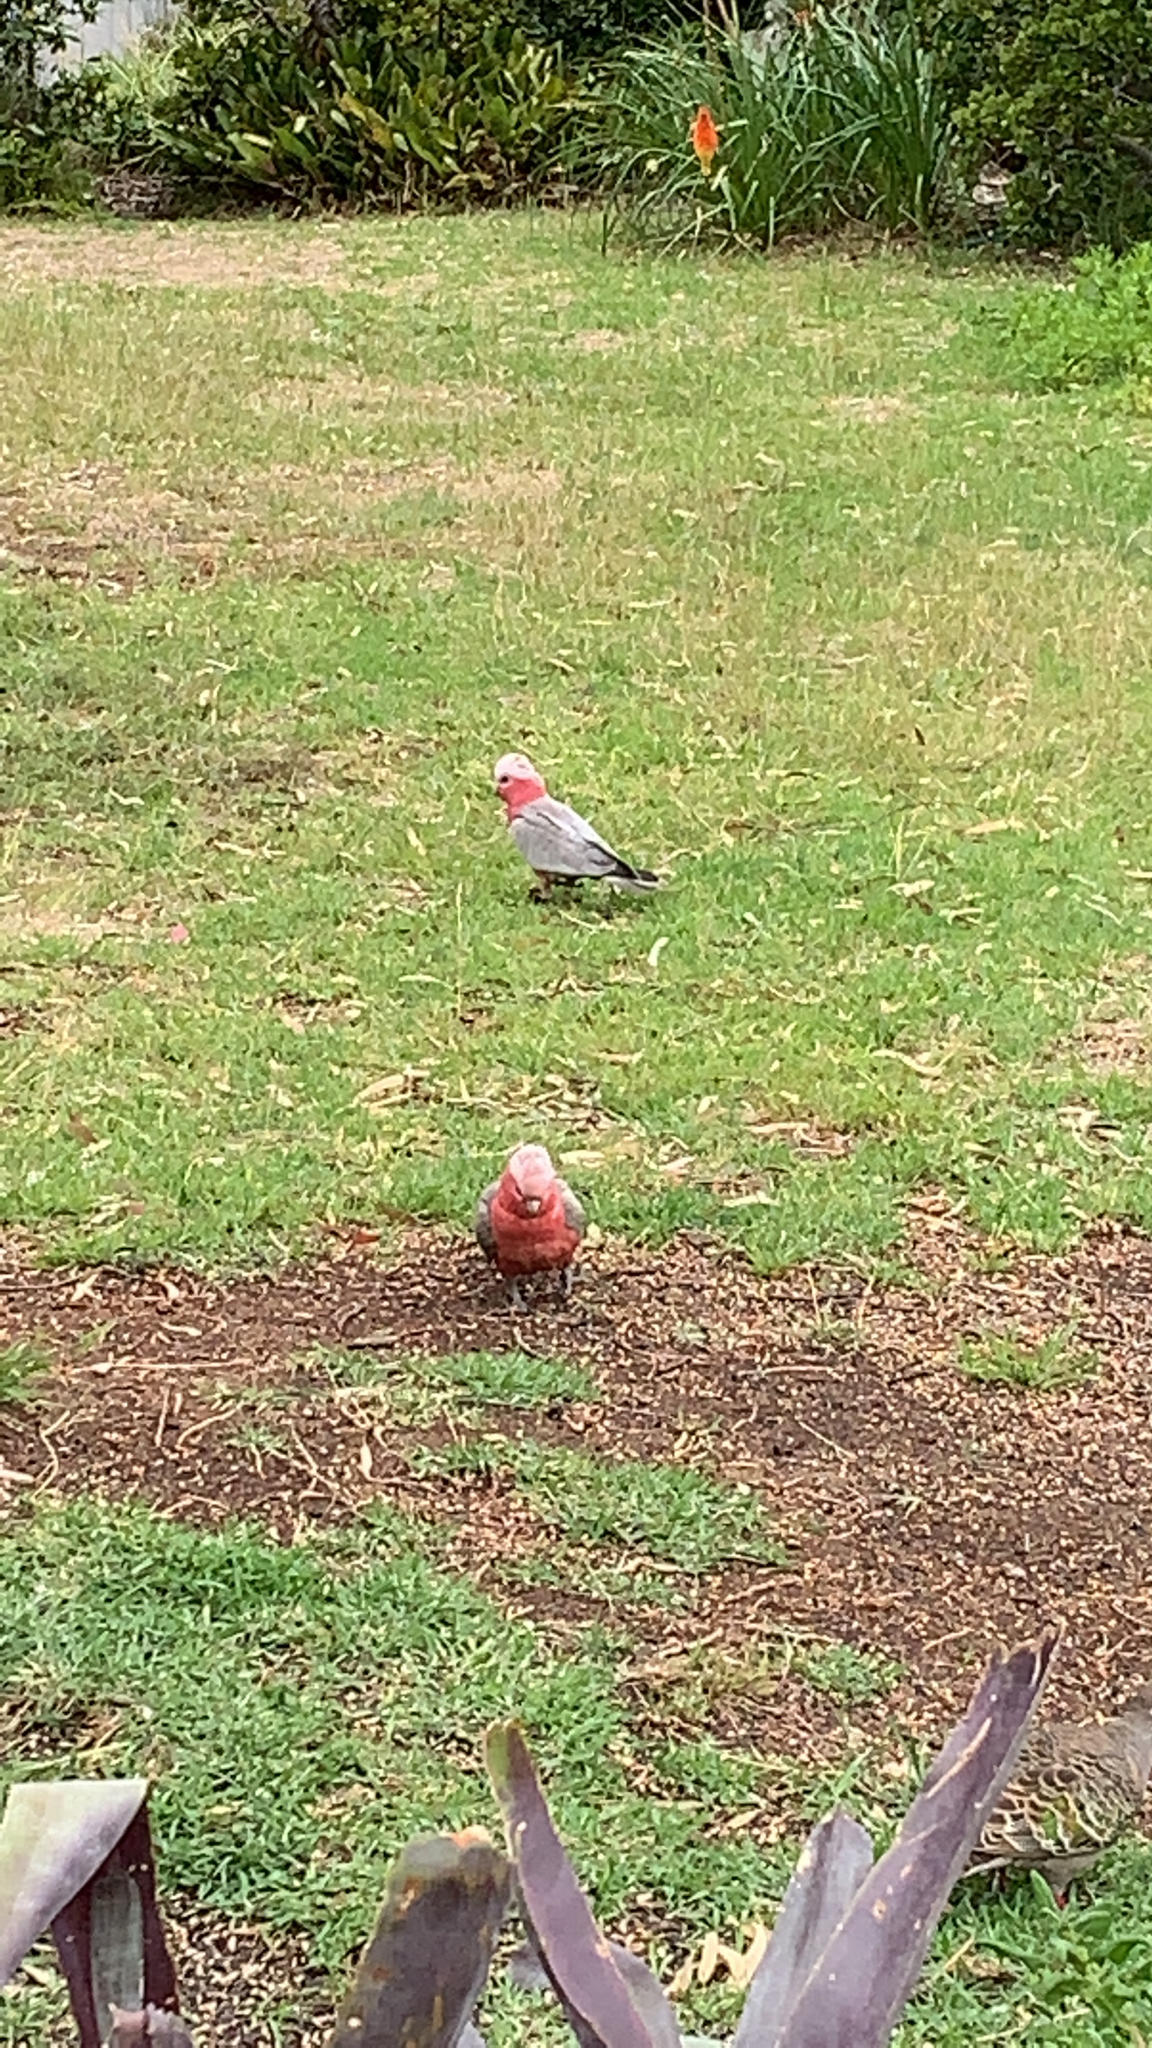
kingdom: Animalia
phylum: Chordata
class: Aves
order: Psittaciformes
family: Psittacidae
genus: Eolophus
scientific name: Eolophus roseicapilla
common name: Galah
